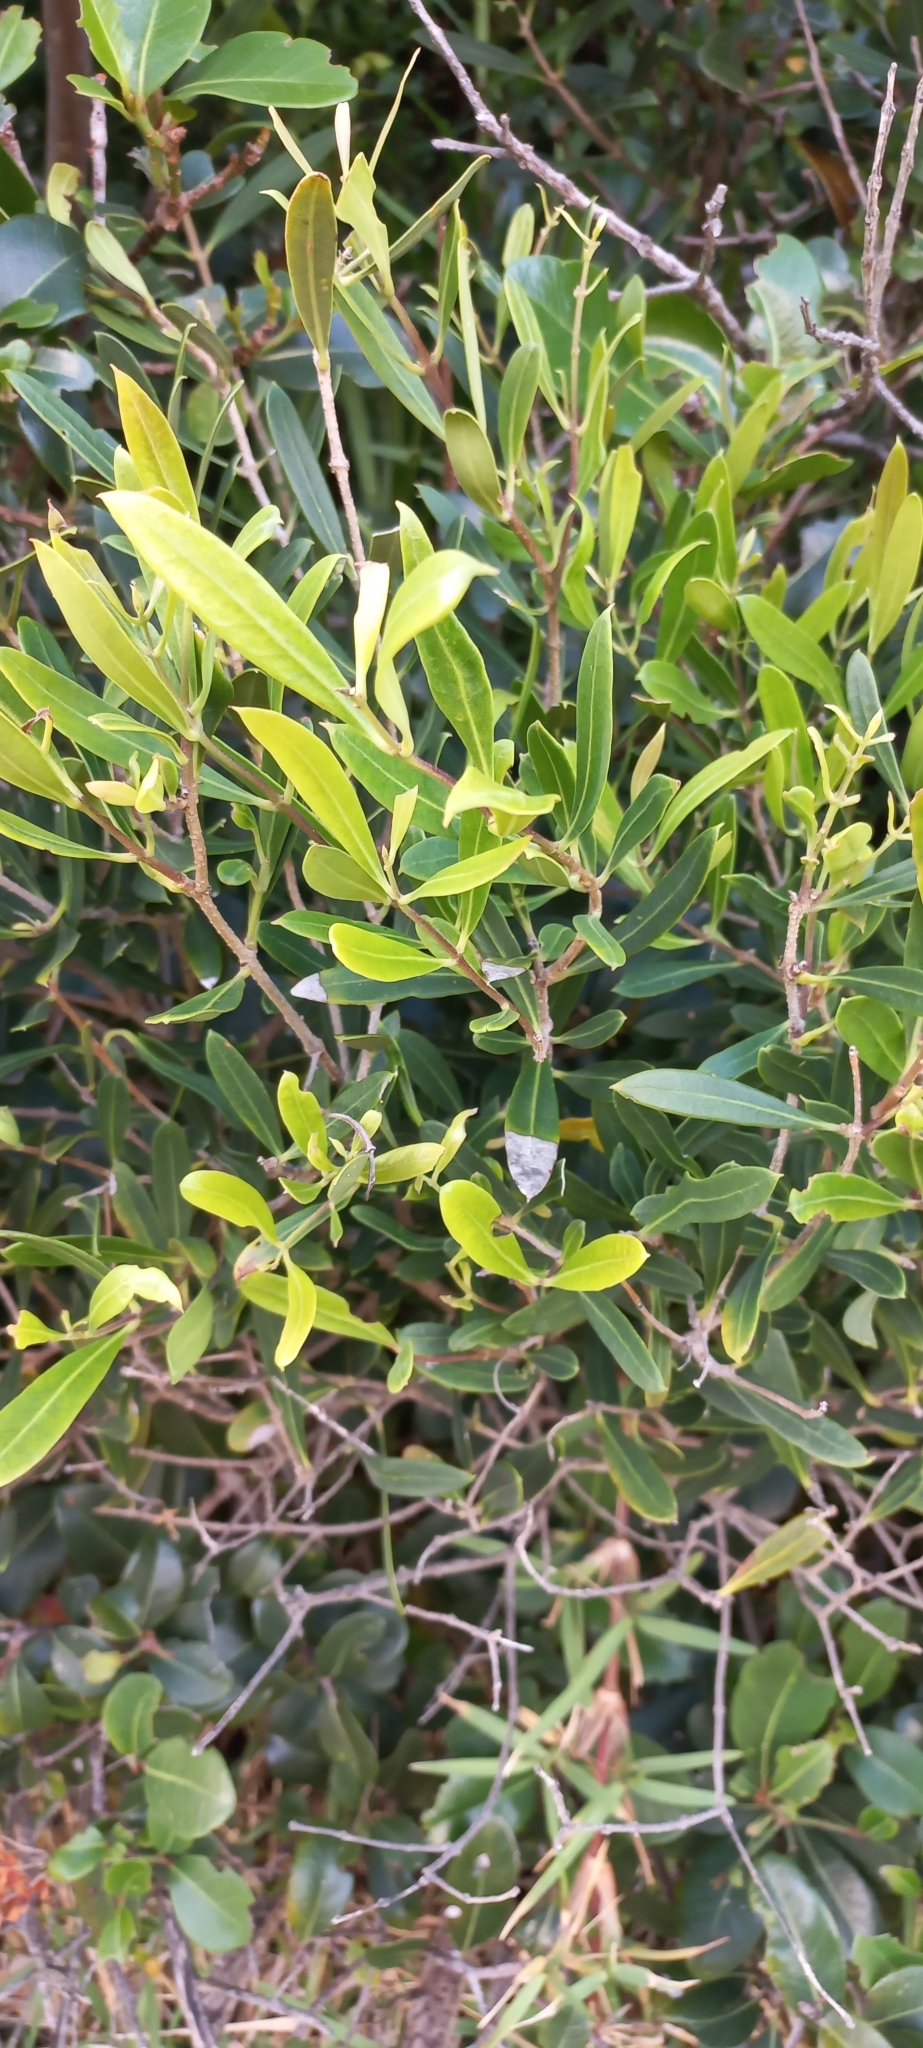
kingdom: Plantae
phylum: Tracheophyta
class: Magnoliopsida
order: Lamiales
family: Oleaceae
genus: Olea
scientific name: Olea exasperata
